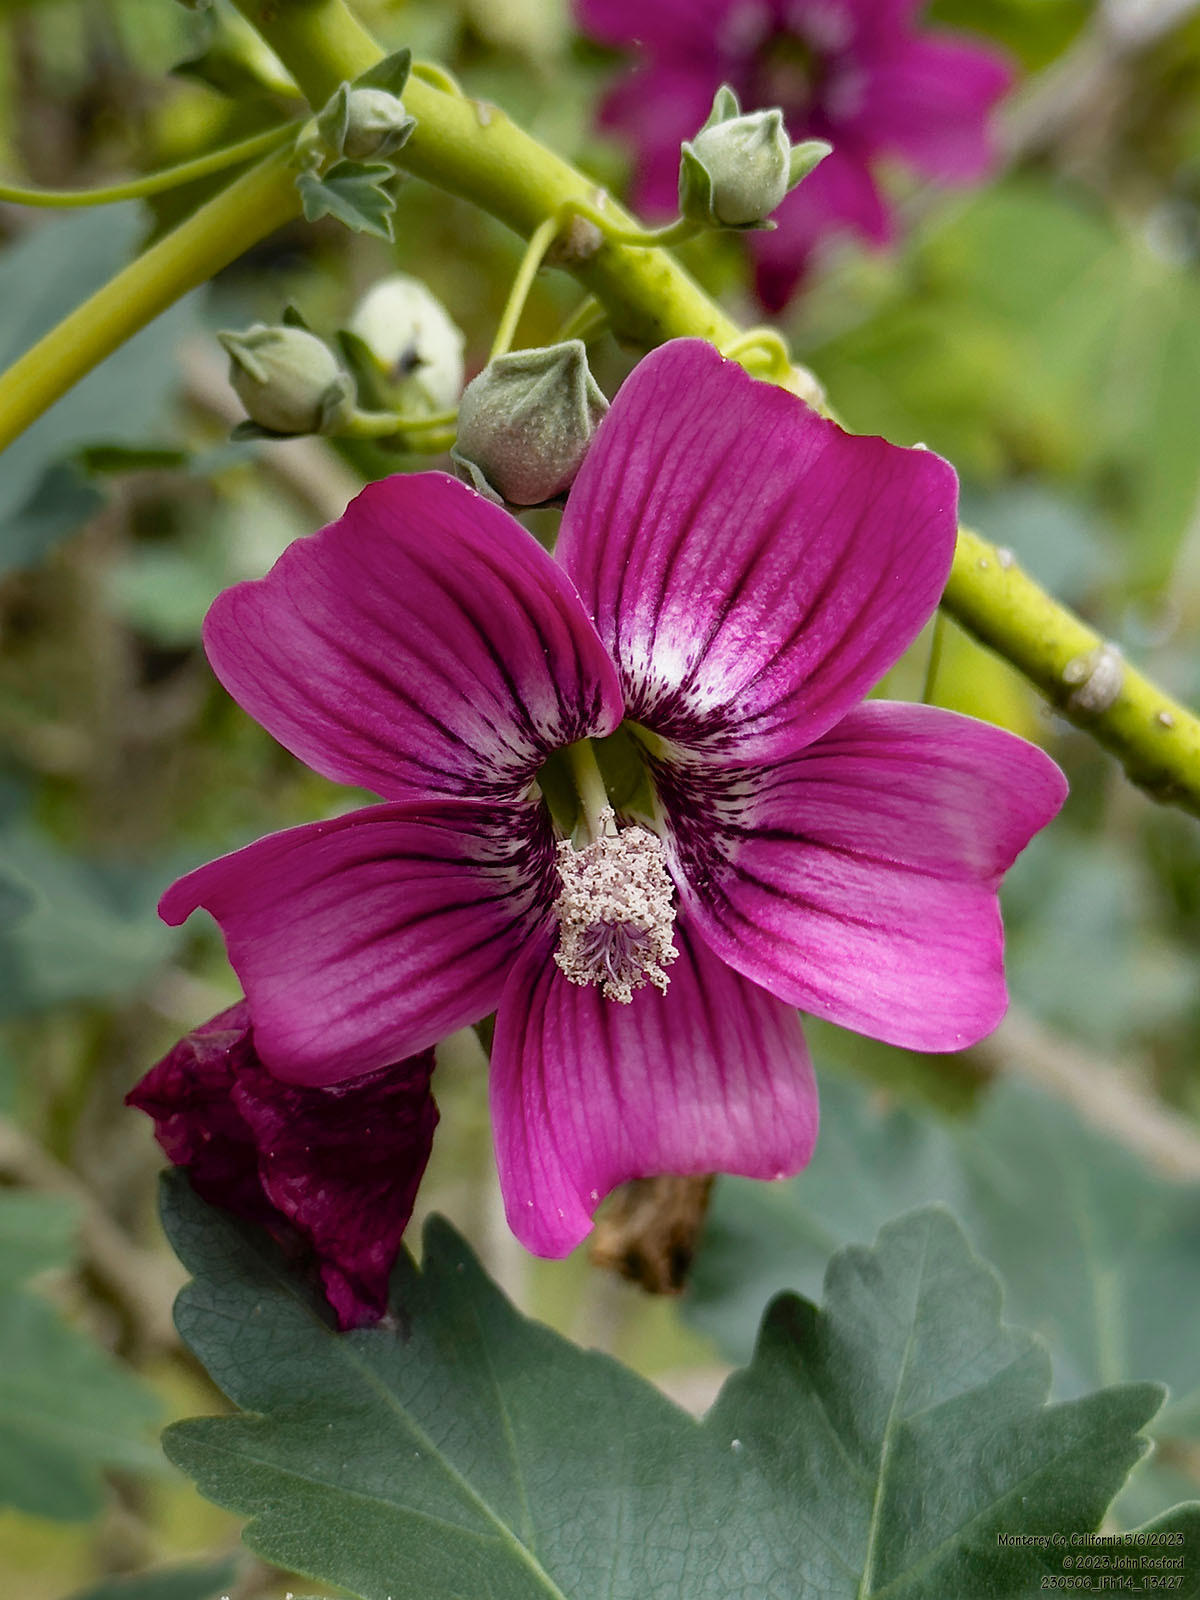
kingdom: Plantae
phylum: Tracheophyta
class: Magnoliopsida
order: Malvales
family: Malvaceae
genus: Malva
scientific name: Malva assurgentiflora
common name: Island mallow
